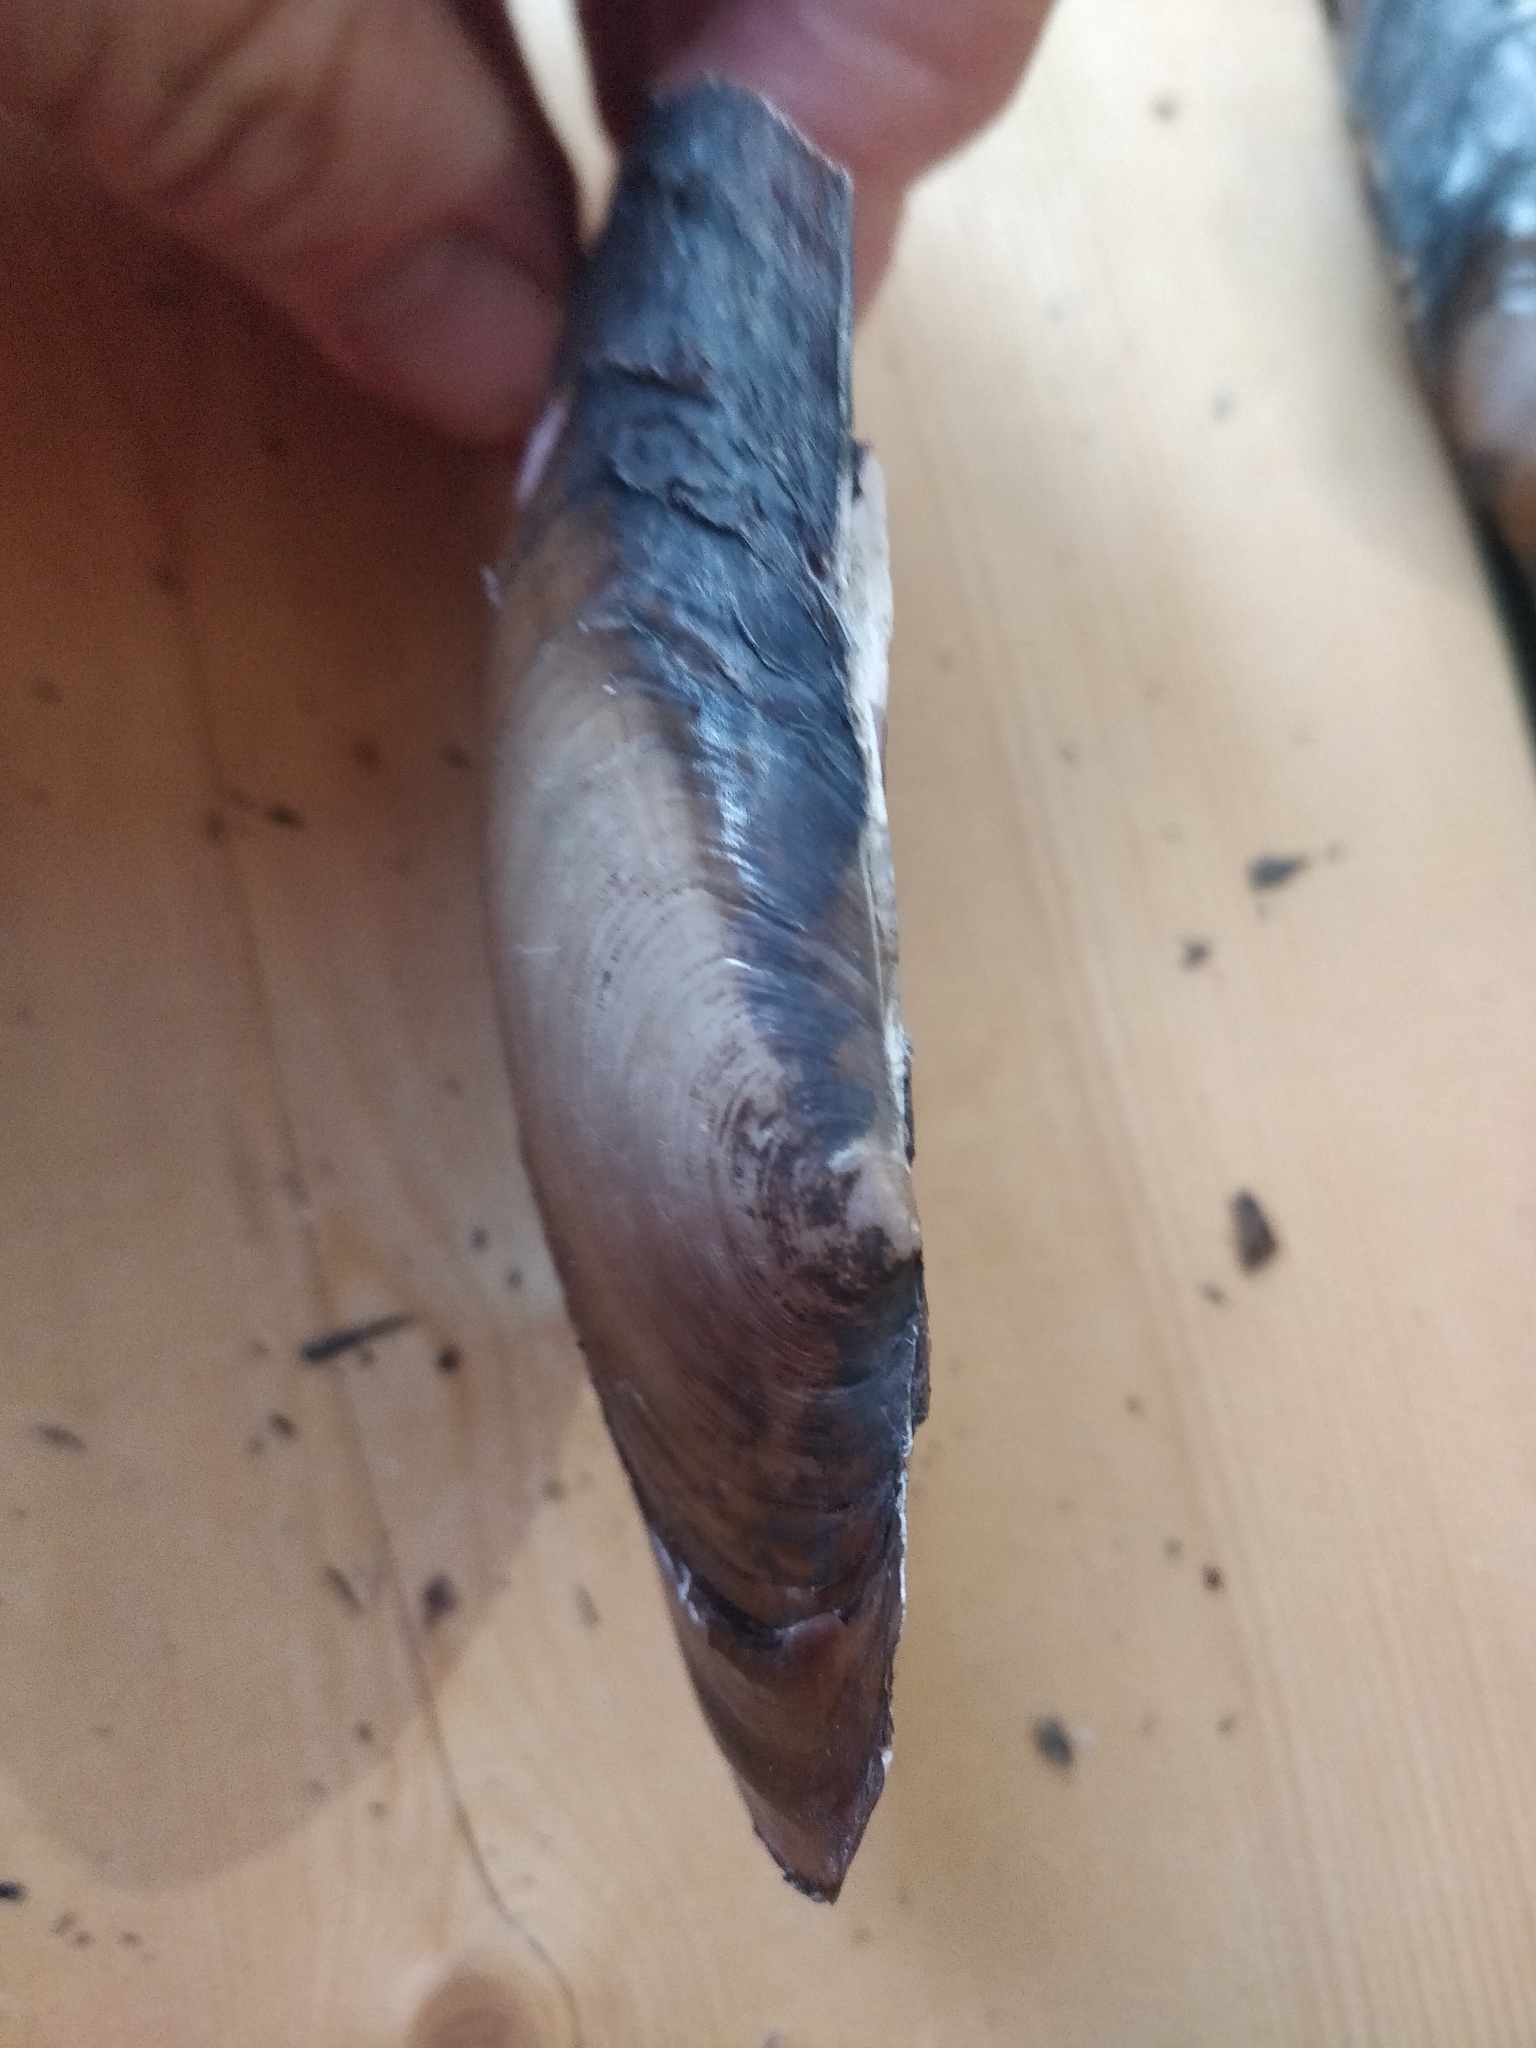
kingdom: Animalia
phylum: Mollusca
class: Bivalvia
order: Unionida
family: Unionidae
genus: Potamilus
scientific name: Potamilus ohiensis
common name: Pink papershell
